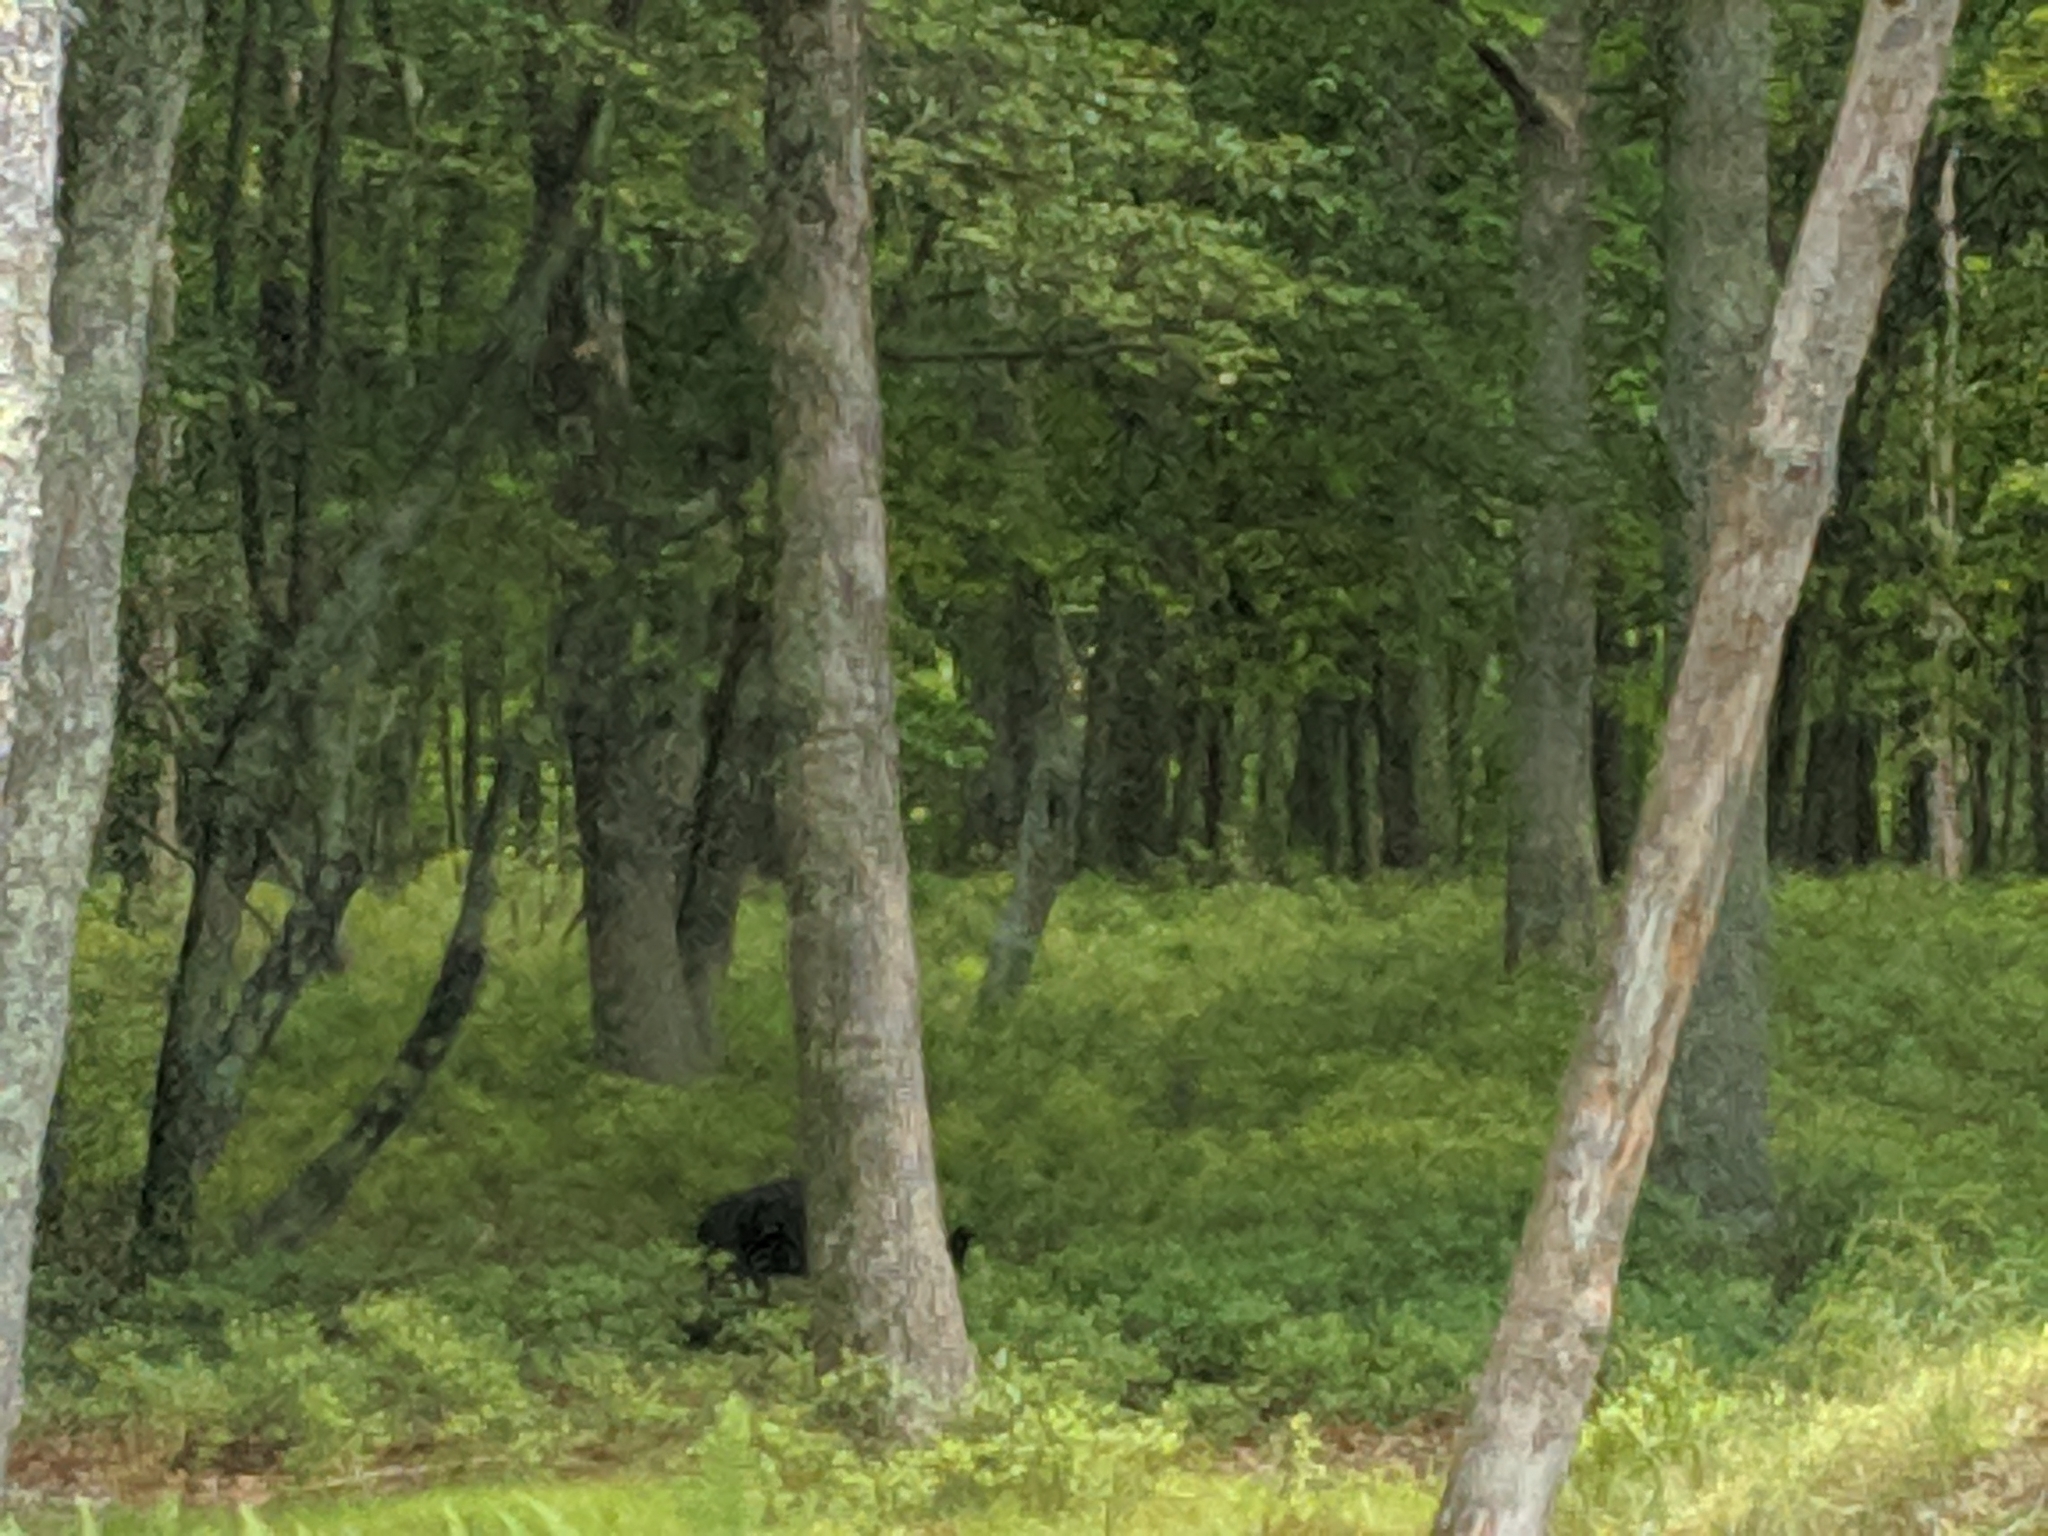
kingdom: Animalia
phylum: Chordata
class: Mammalia
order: Carnivora
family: Ursidae
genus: Ursus
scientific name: Ursus americanus
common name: American black bear
